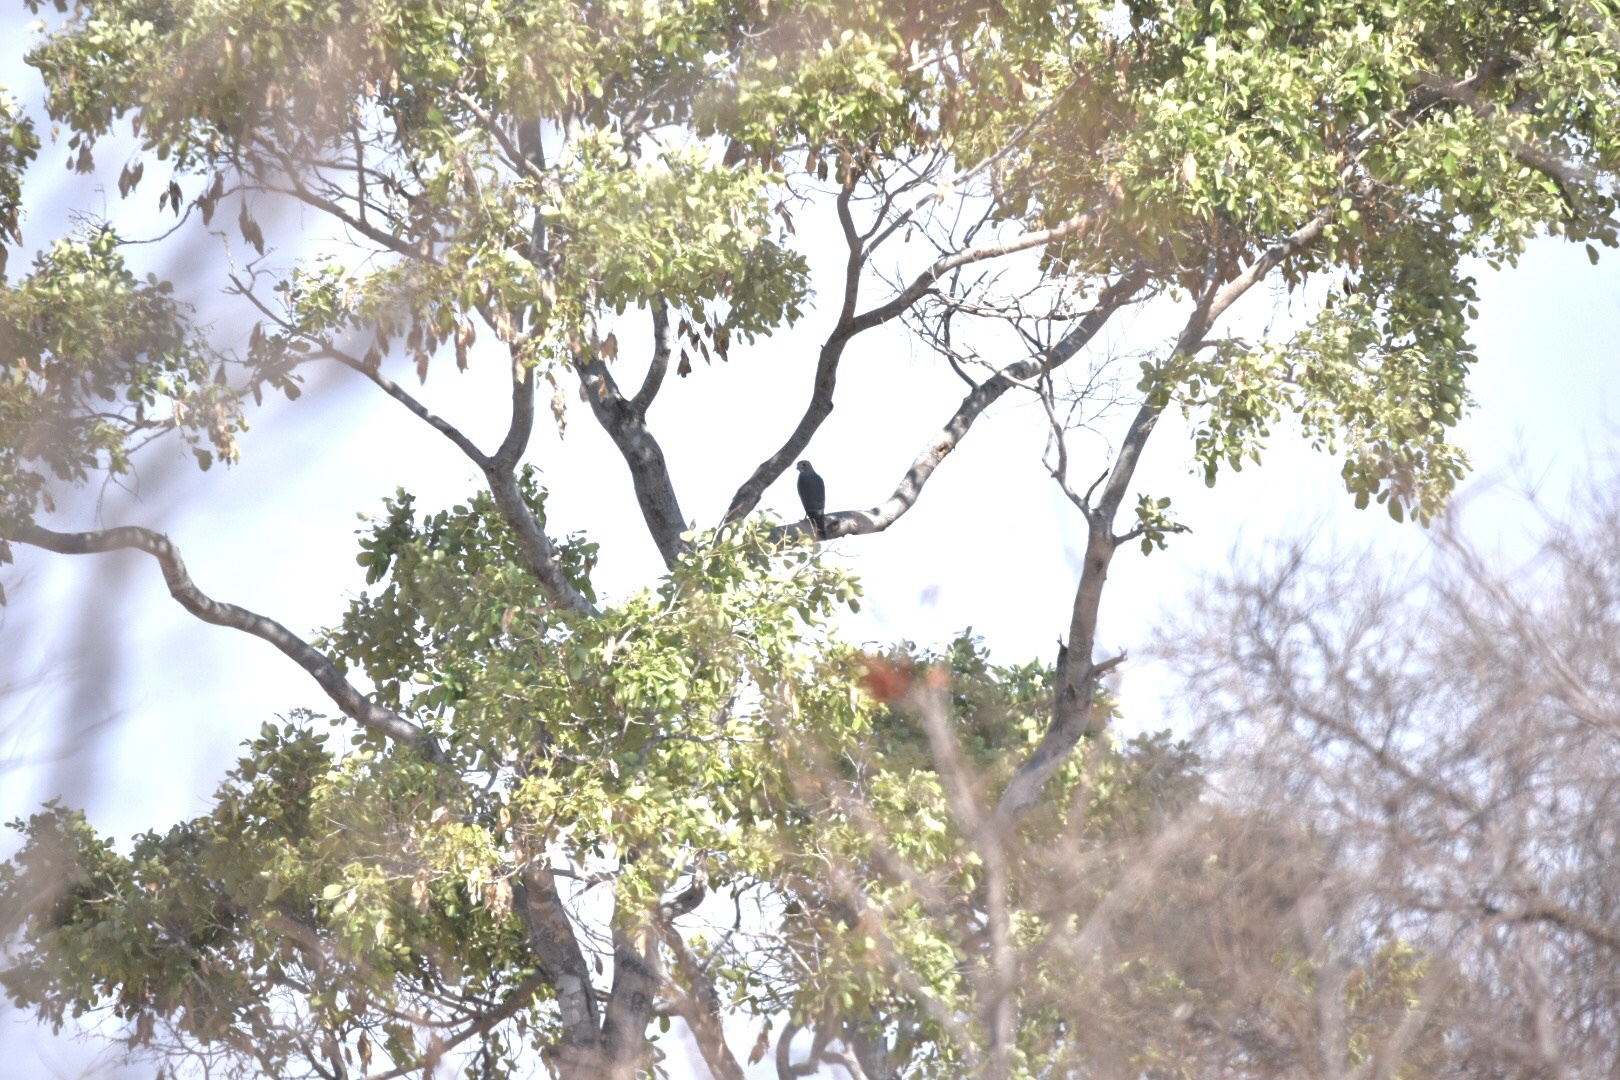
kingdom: Animalia
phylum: Chordata
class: Aves
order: Accipitriformes
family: Accipitridae
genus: Kaupifalco
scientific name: Kaupifalco monogrammicus
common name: Lizard buzzard
